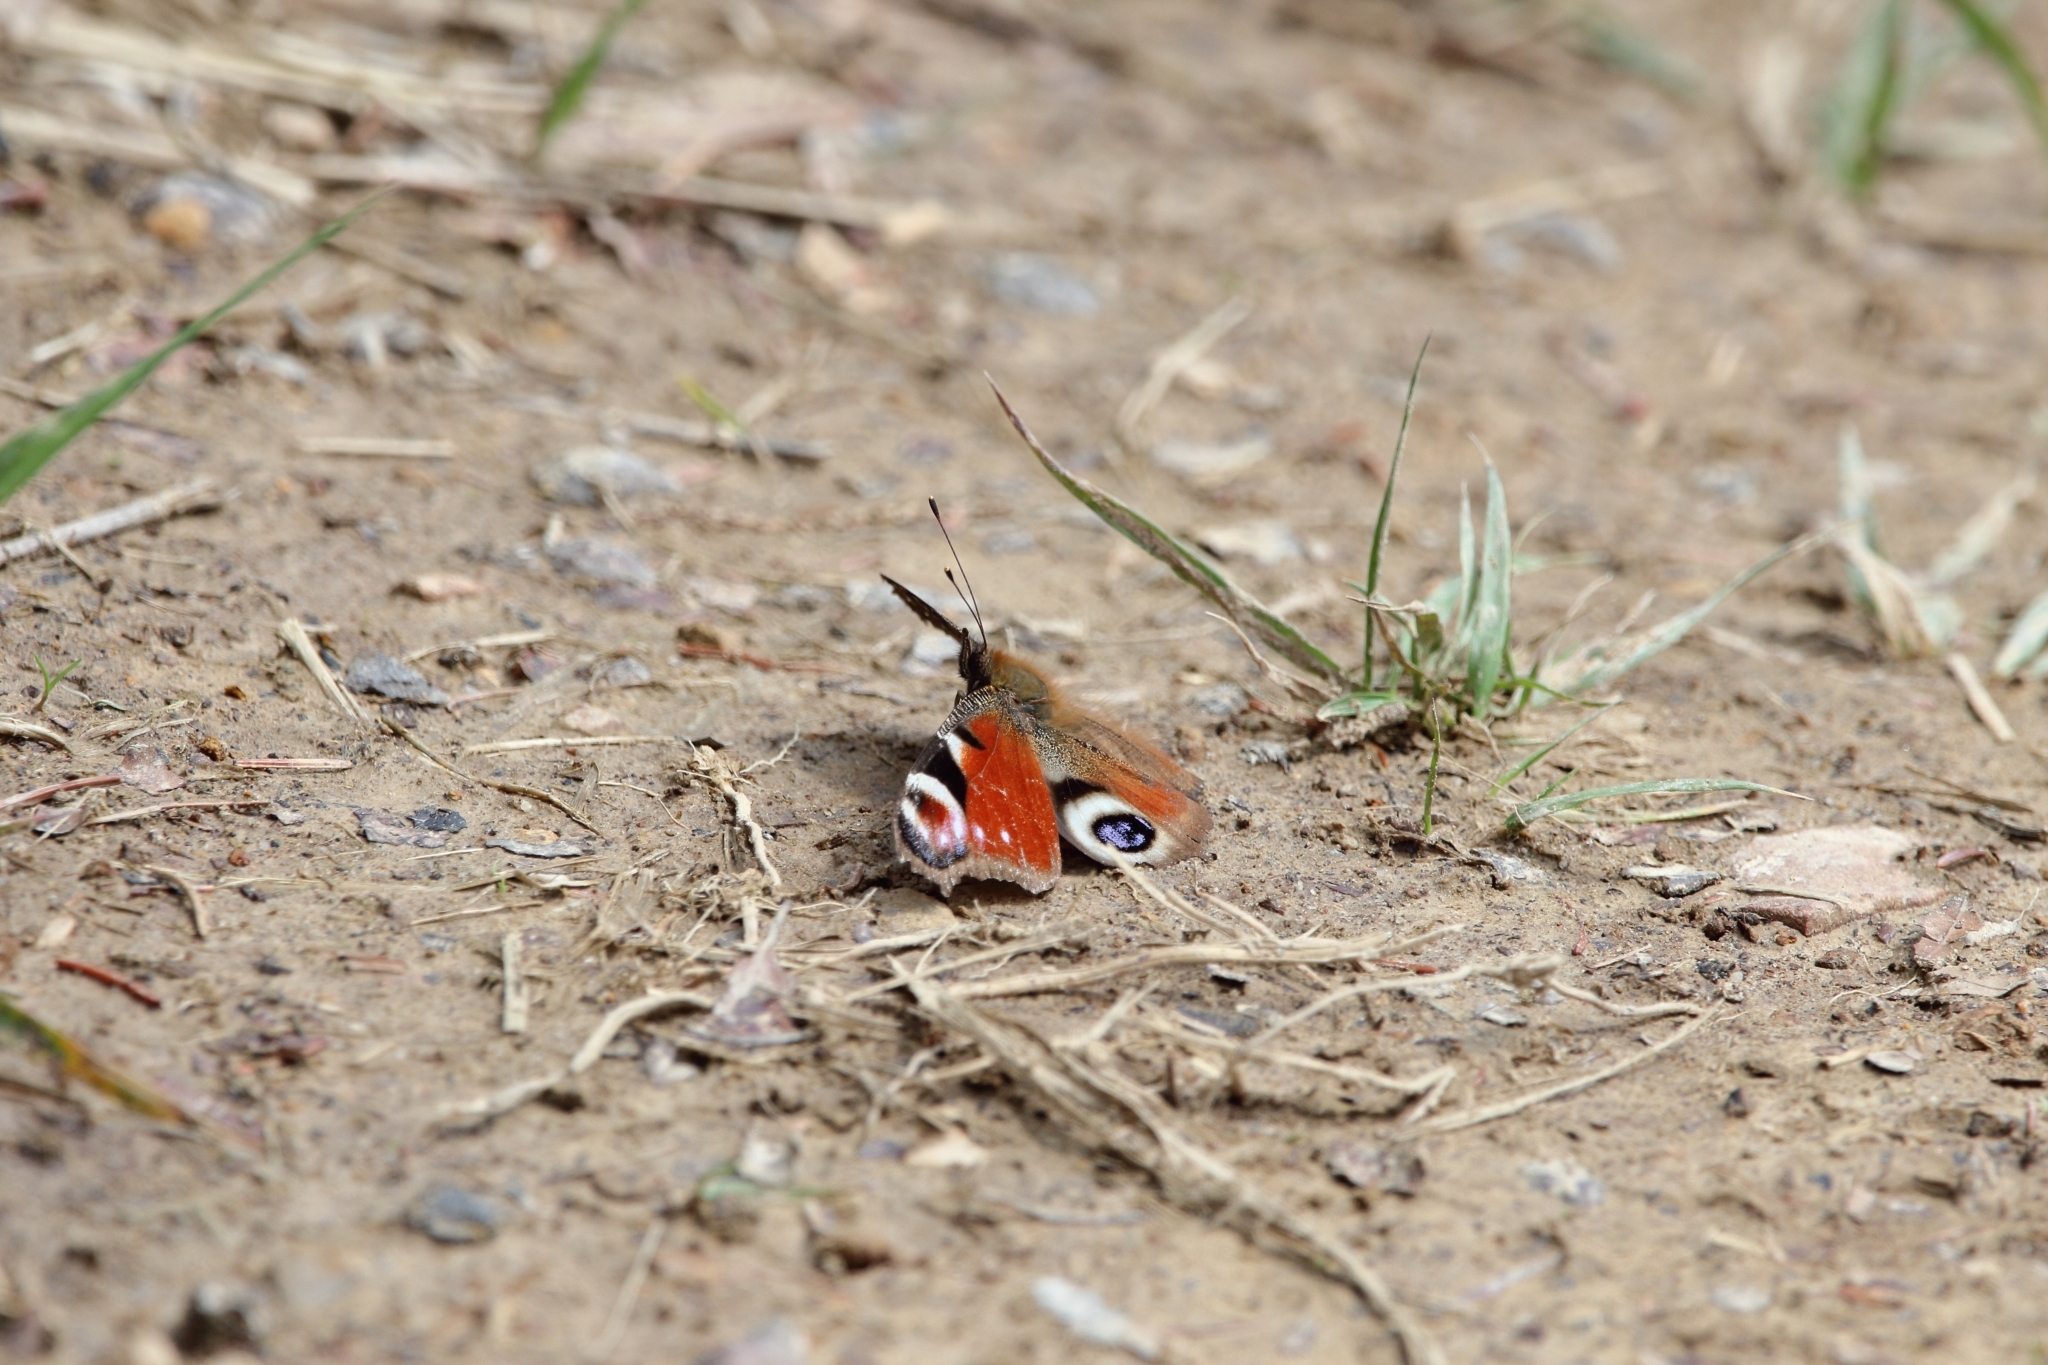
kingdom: Animalia
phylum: Arthropoda
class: Insecta
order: Lepidoptera
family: Nymphalidae
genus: Aglais
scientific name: Aglais io
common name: Peacock
